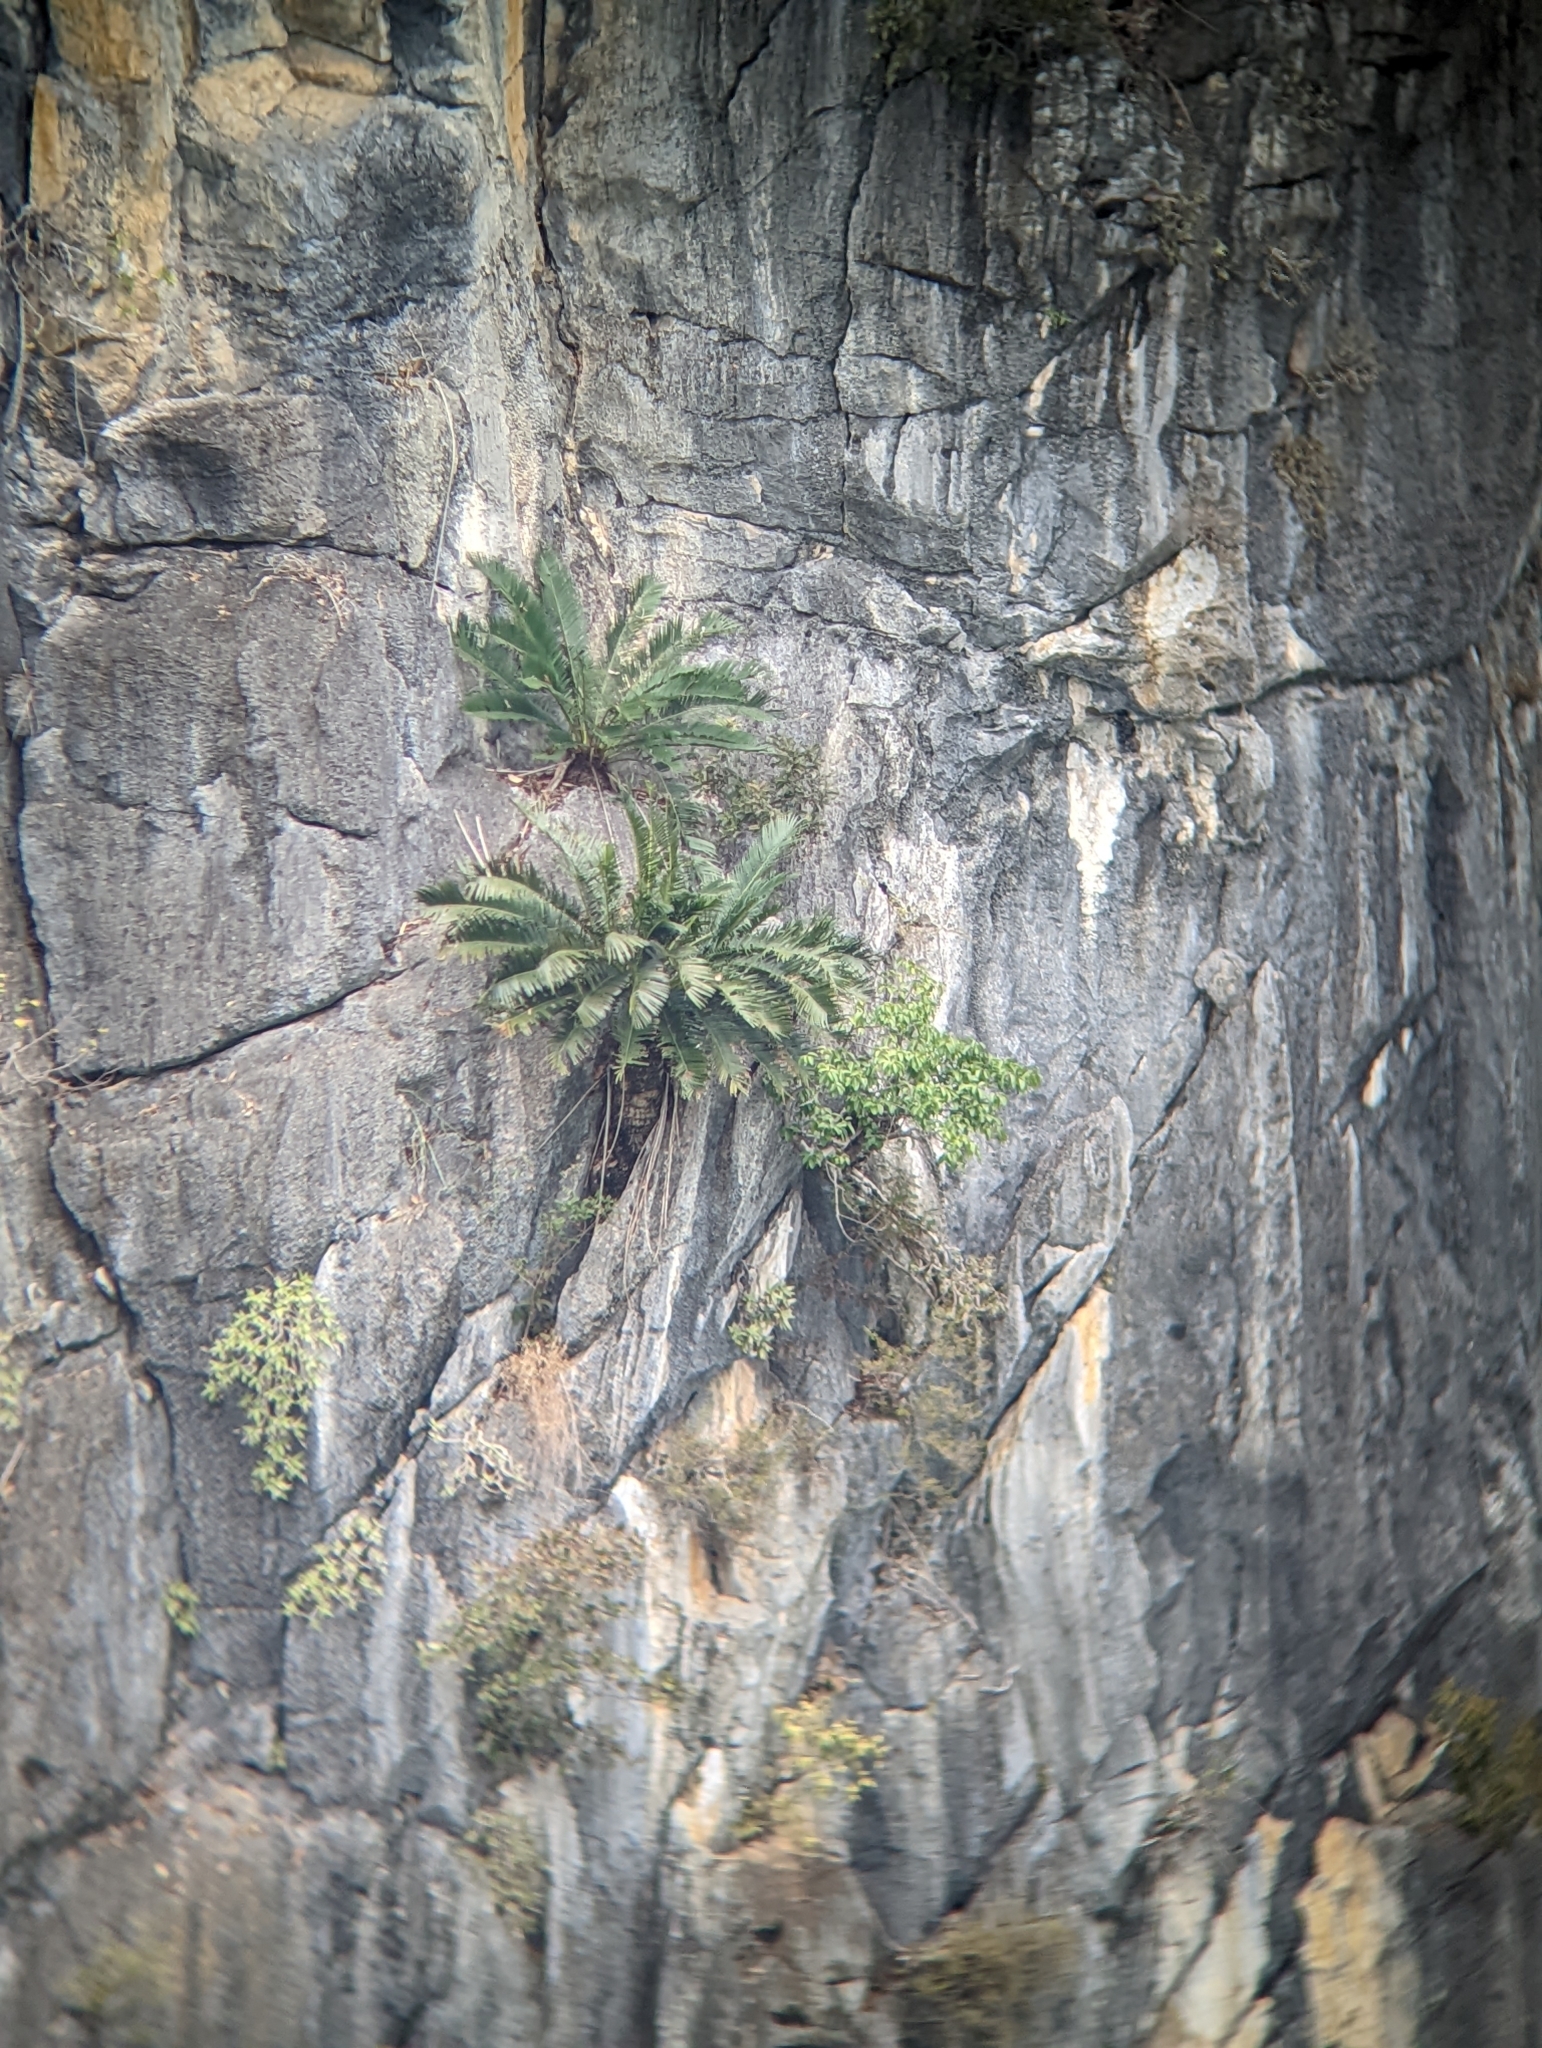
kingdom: Plantae
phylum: Tracheophyta
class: Cycadopsida
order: Cycadales
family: Cycadaceae
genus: Cycas
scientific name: Cycas tropophylla
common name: Ha long cycad
